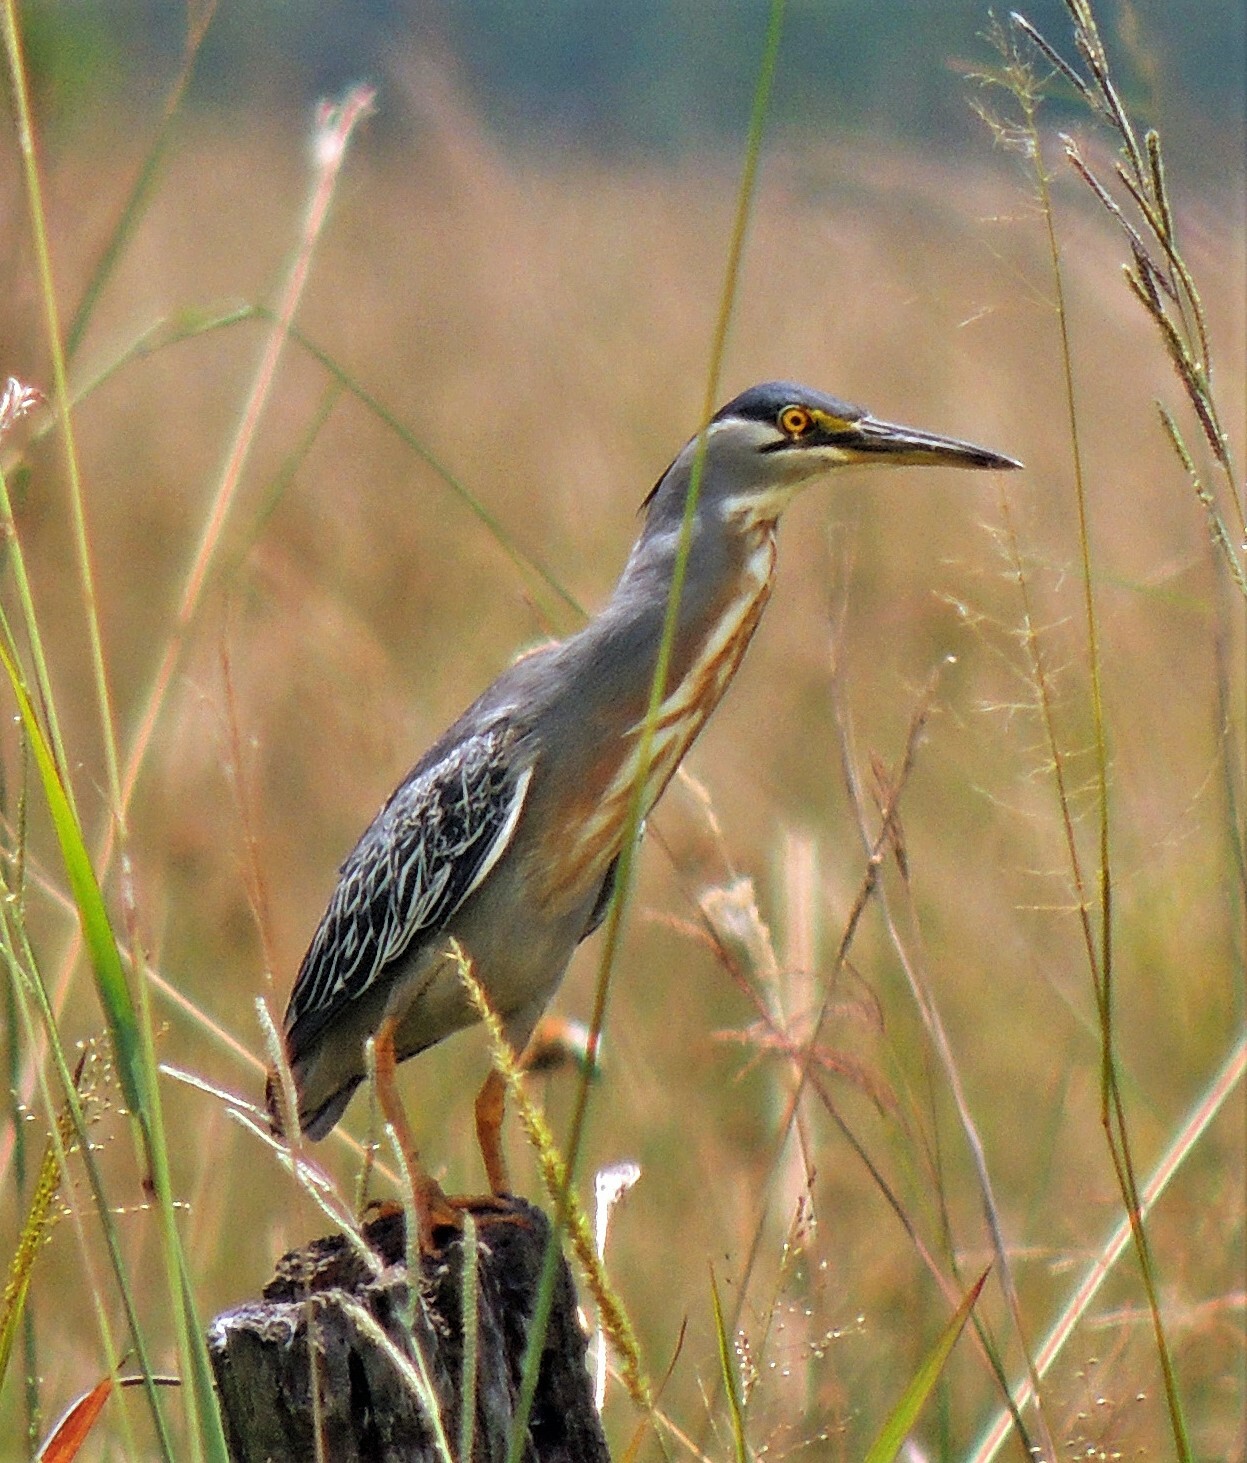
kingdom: Animalia
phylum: Chordata
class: Aves
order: Pelecaniformes
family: Ardeidae
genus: Butorides
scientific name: Butorides striata
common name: Striated heron
